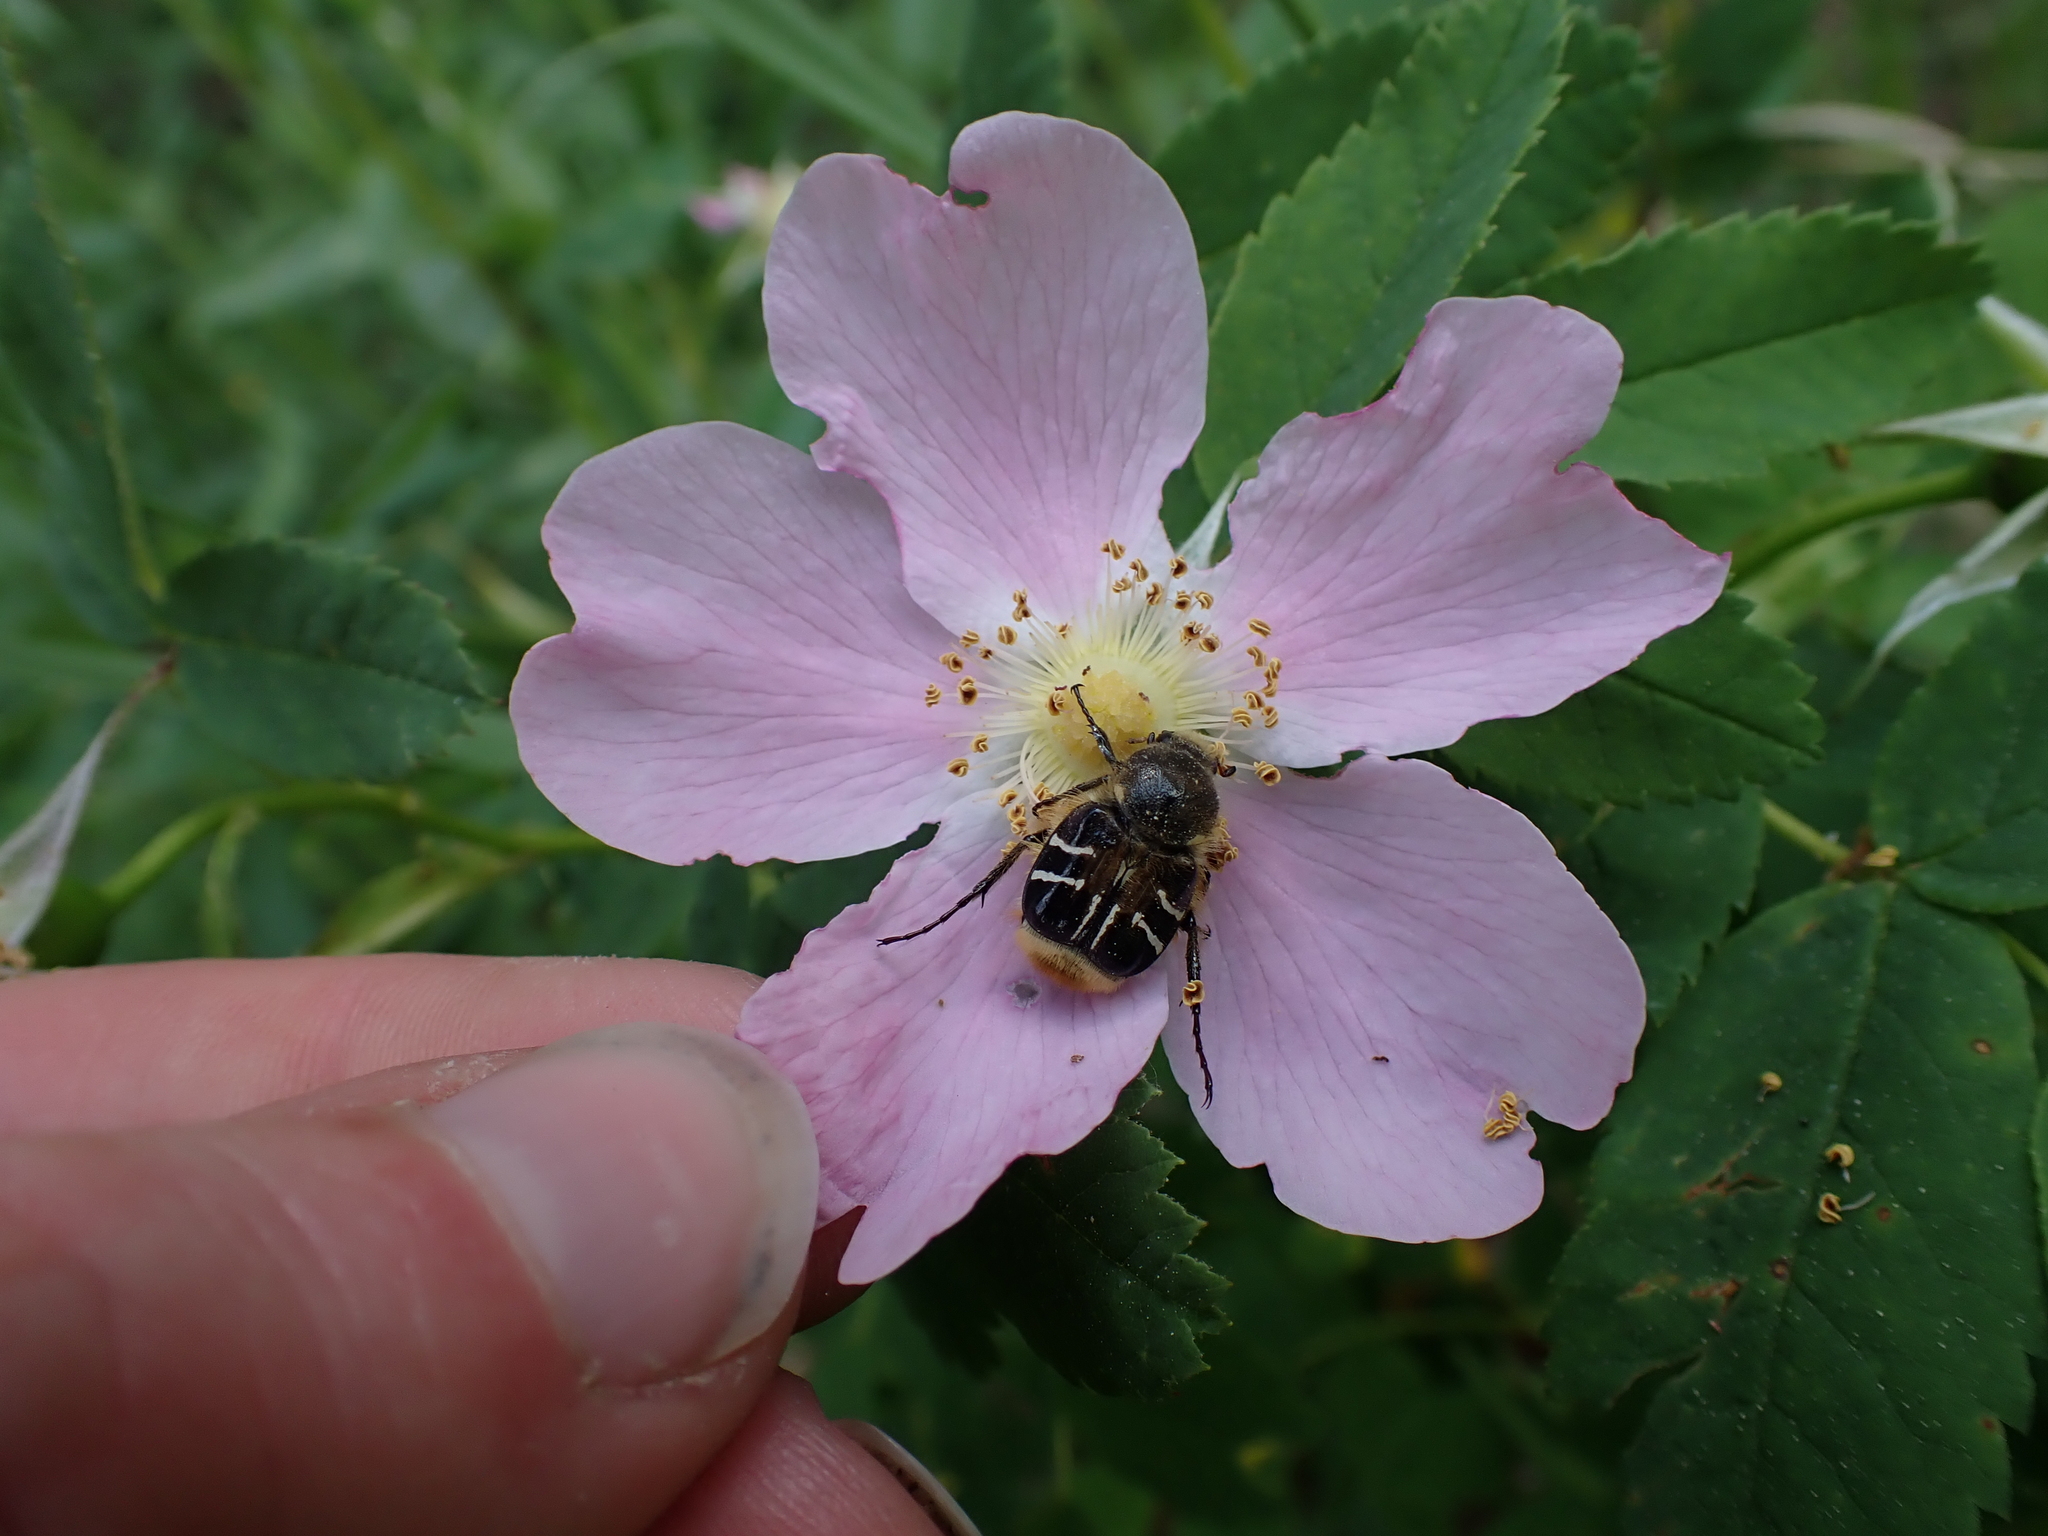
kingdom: Animalia
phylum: Arthropoda
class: Insecta
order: Coleoptera
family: Scarabaeidae
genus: Trichiotinus
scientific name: Trichiotinus assimilis
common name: Bee-mimic beetle
